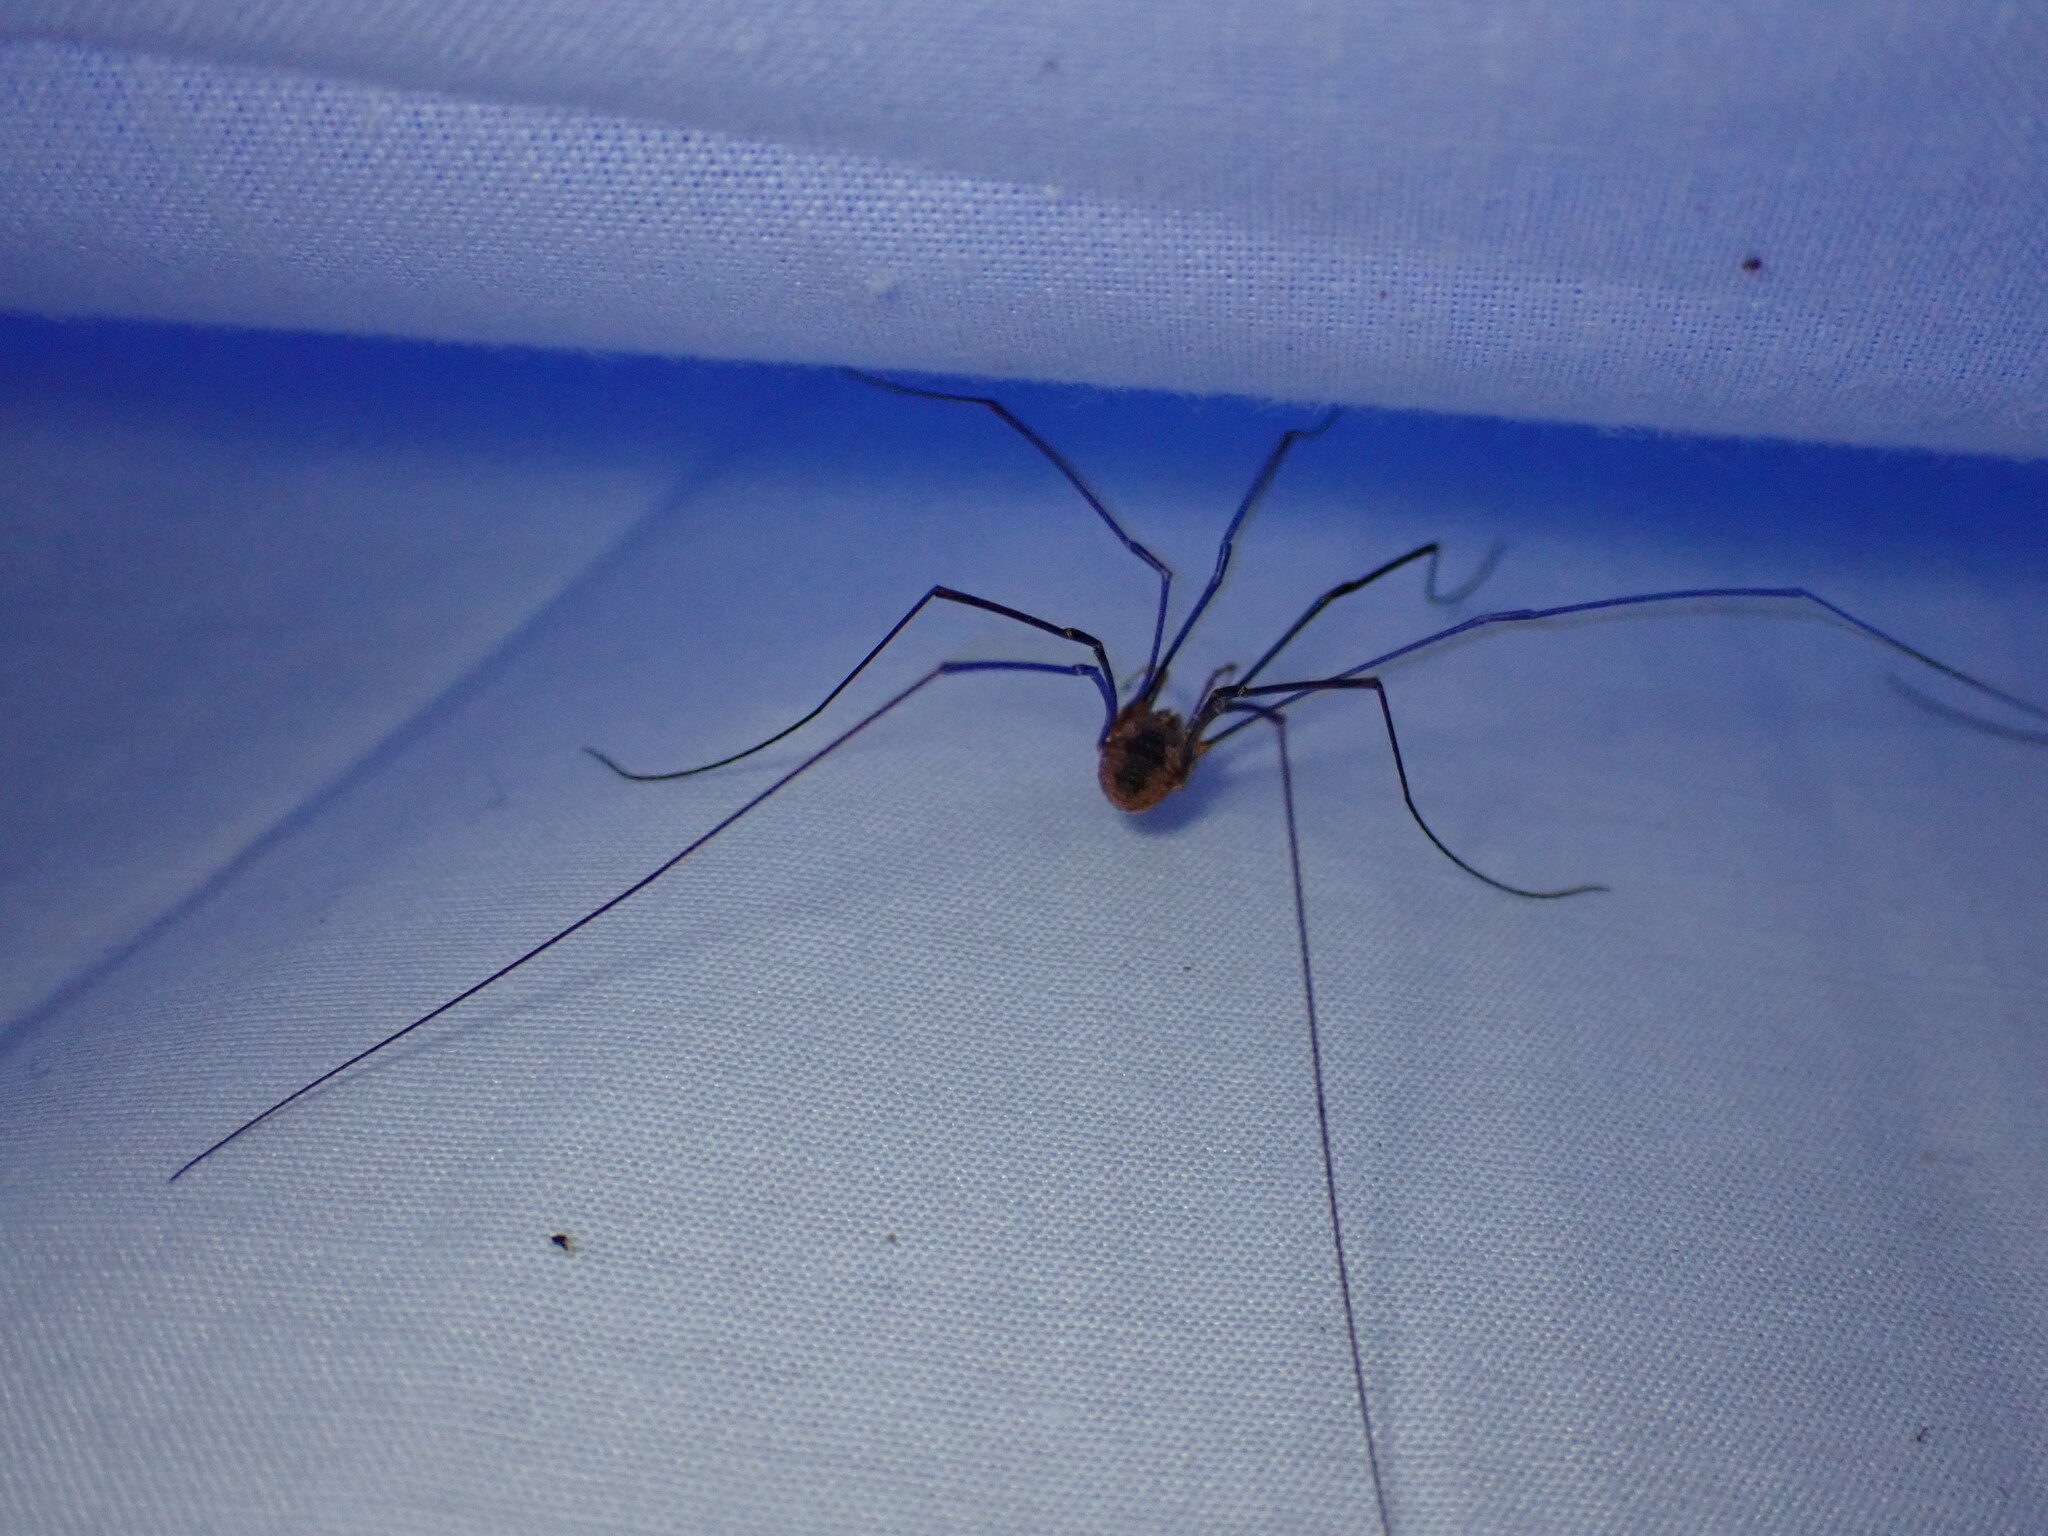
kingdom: Animalia
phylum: Arthropoda
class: Arachnida
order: Opiliones
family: Phalangiidae
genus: Phalangium
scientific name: Phalangium opilio
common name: Daddy longleg
